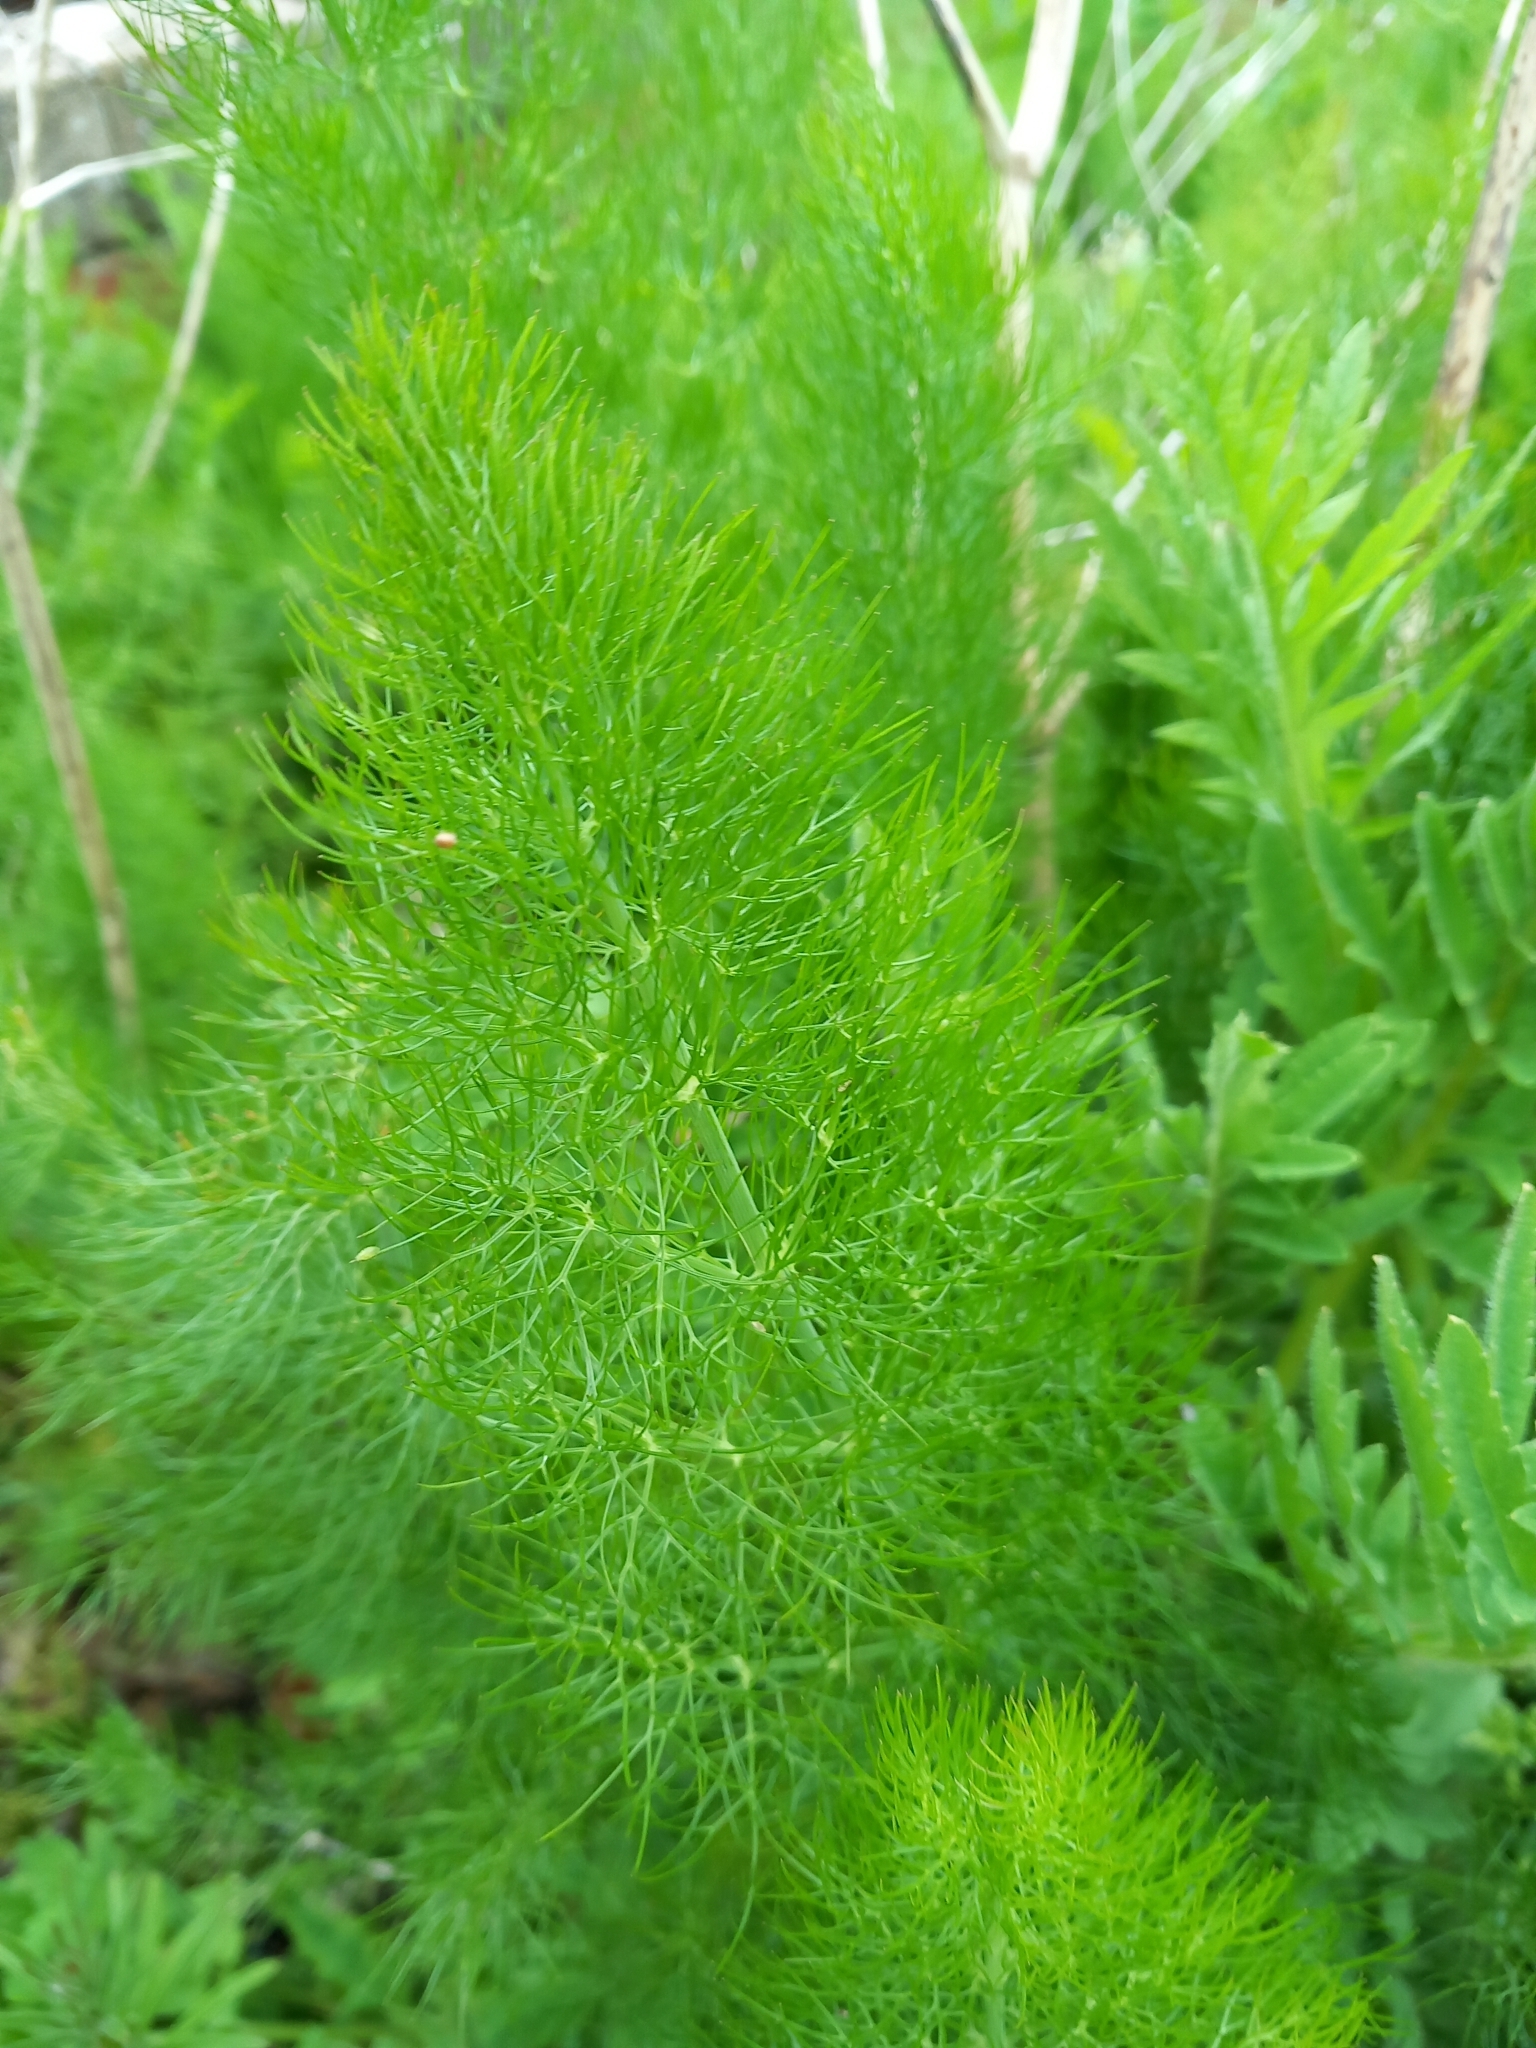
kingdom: Plantae
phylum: Tracheophyta
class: Magnoliopsida
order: Apiales
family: Apiaceae
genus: Foeniculum
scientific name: Foeniculum vulgare
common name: Fennel
